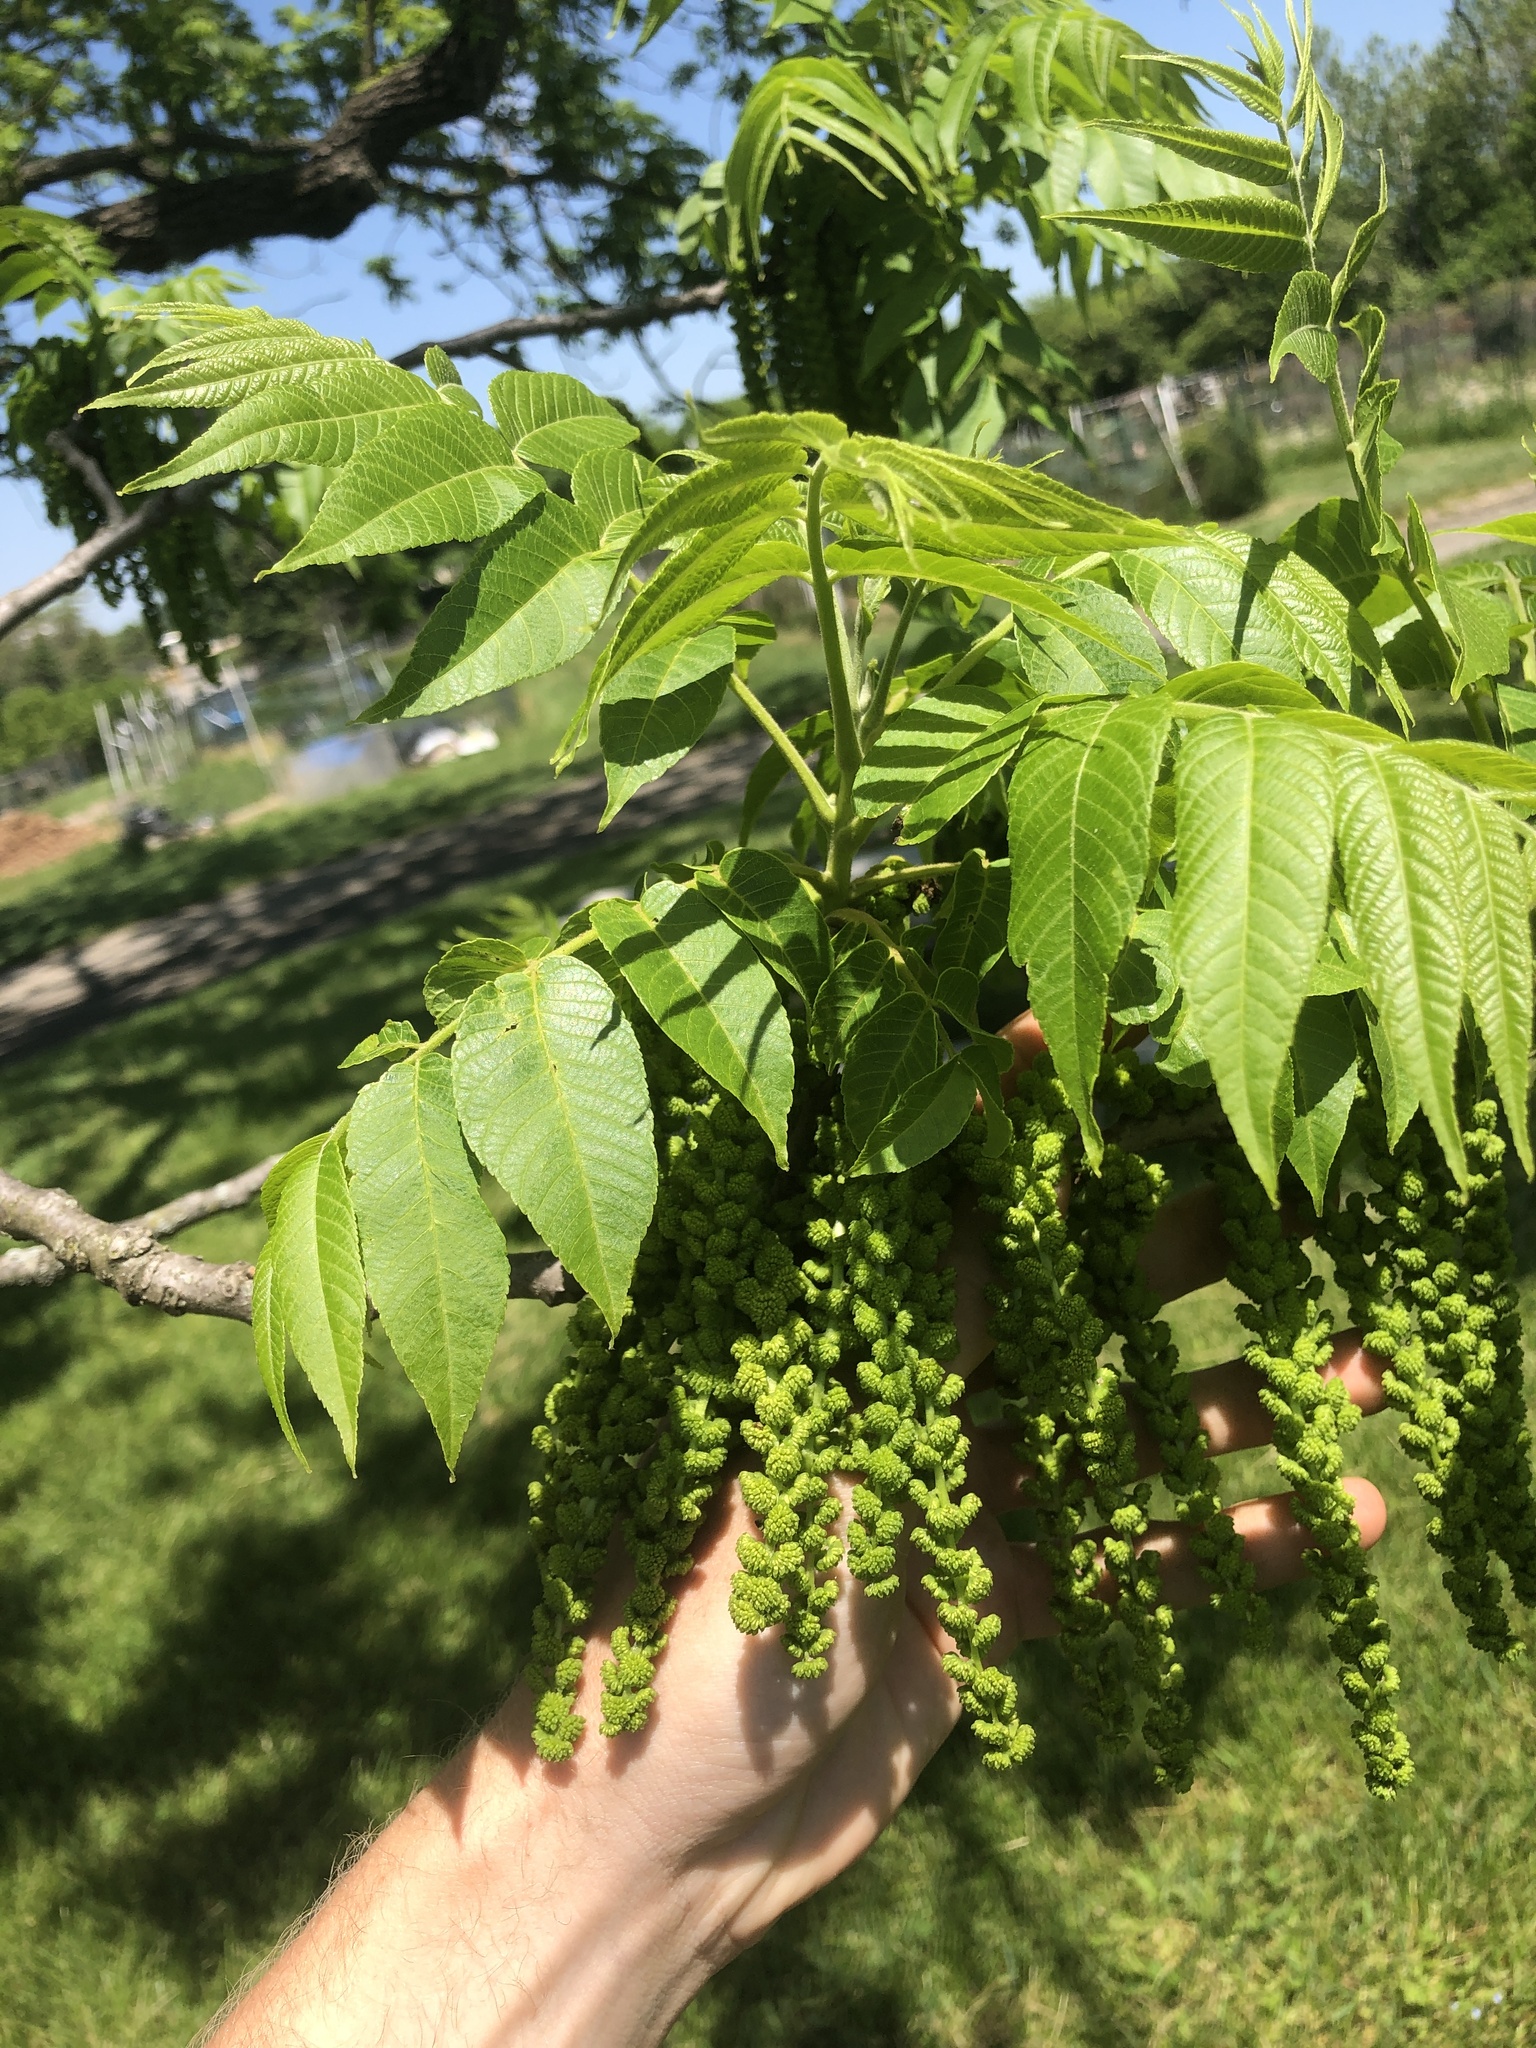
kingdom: Plantae
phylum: Tracheophyta
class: Magnoliopsida
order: Fagales
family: Juglandaceae
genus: Juglans
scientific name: Juglans nigra
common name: Black walnut
